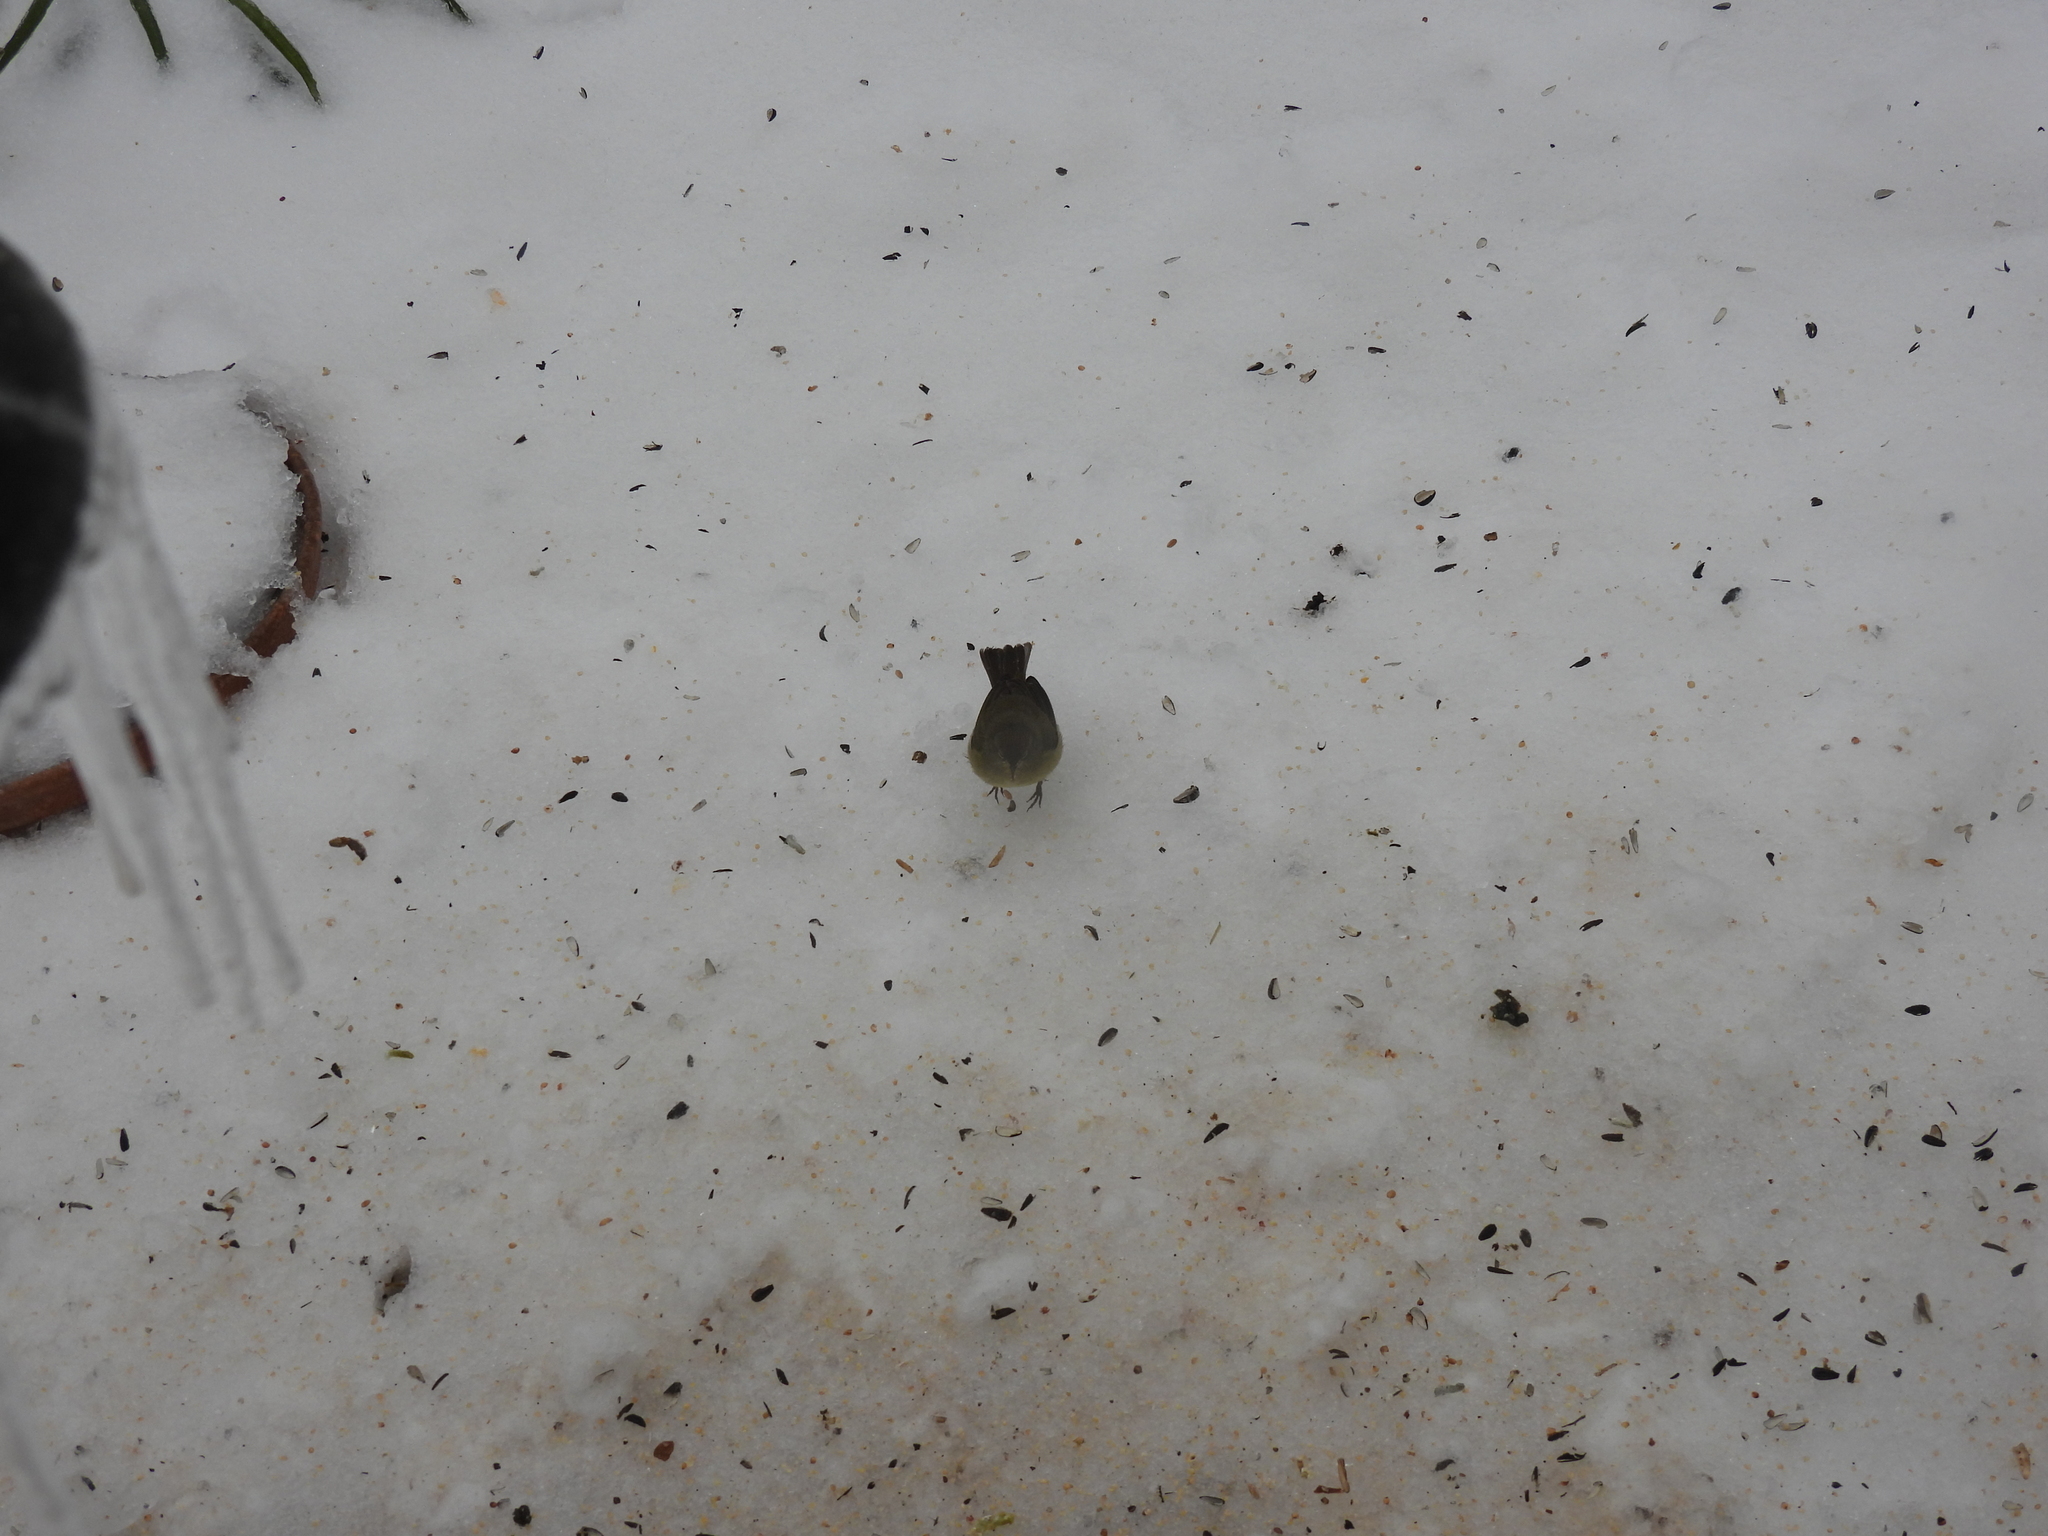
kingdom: Animalia
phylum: Chordata
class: Aves
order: Passeriformes
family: Parulidae
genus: Leiothlypis
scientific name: Leiothlypis celata
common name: Orange-crowned warbler
